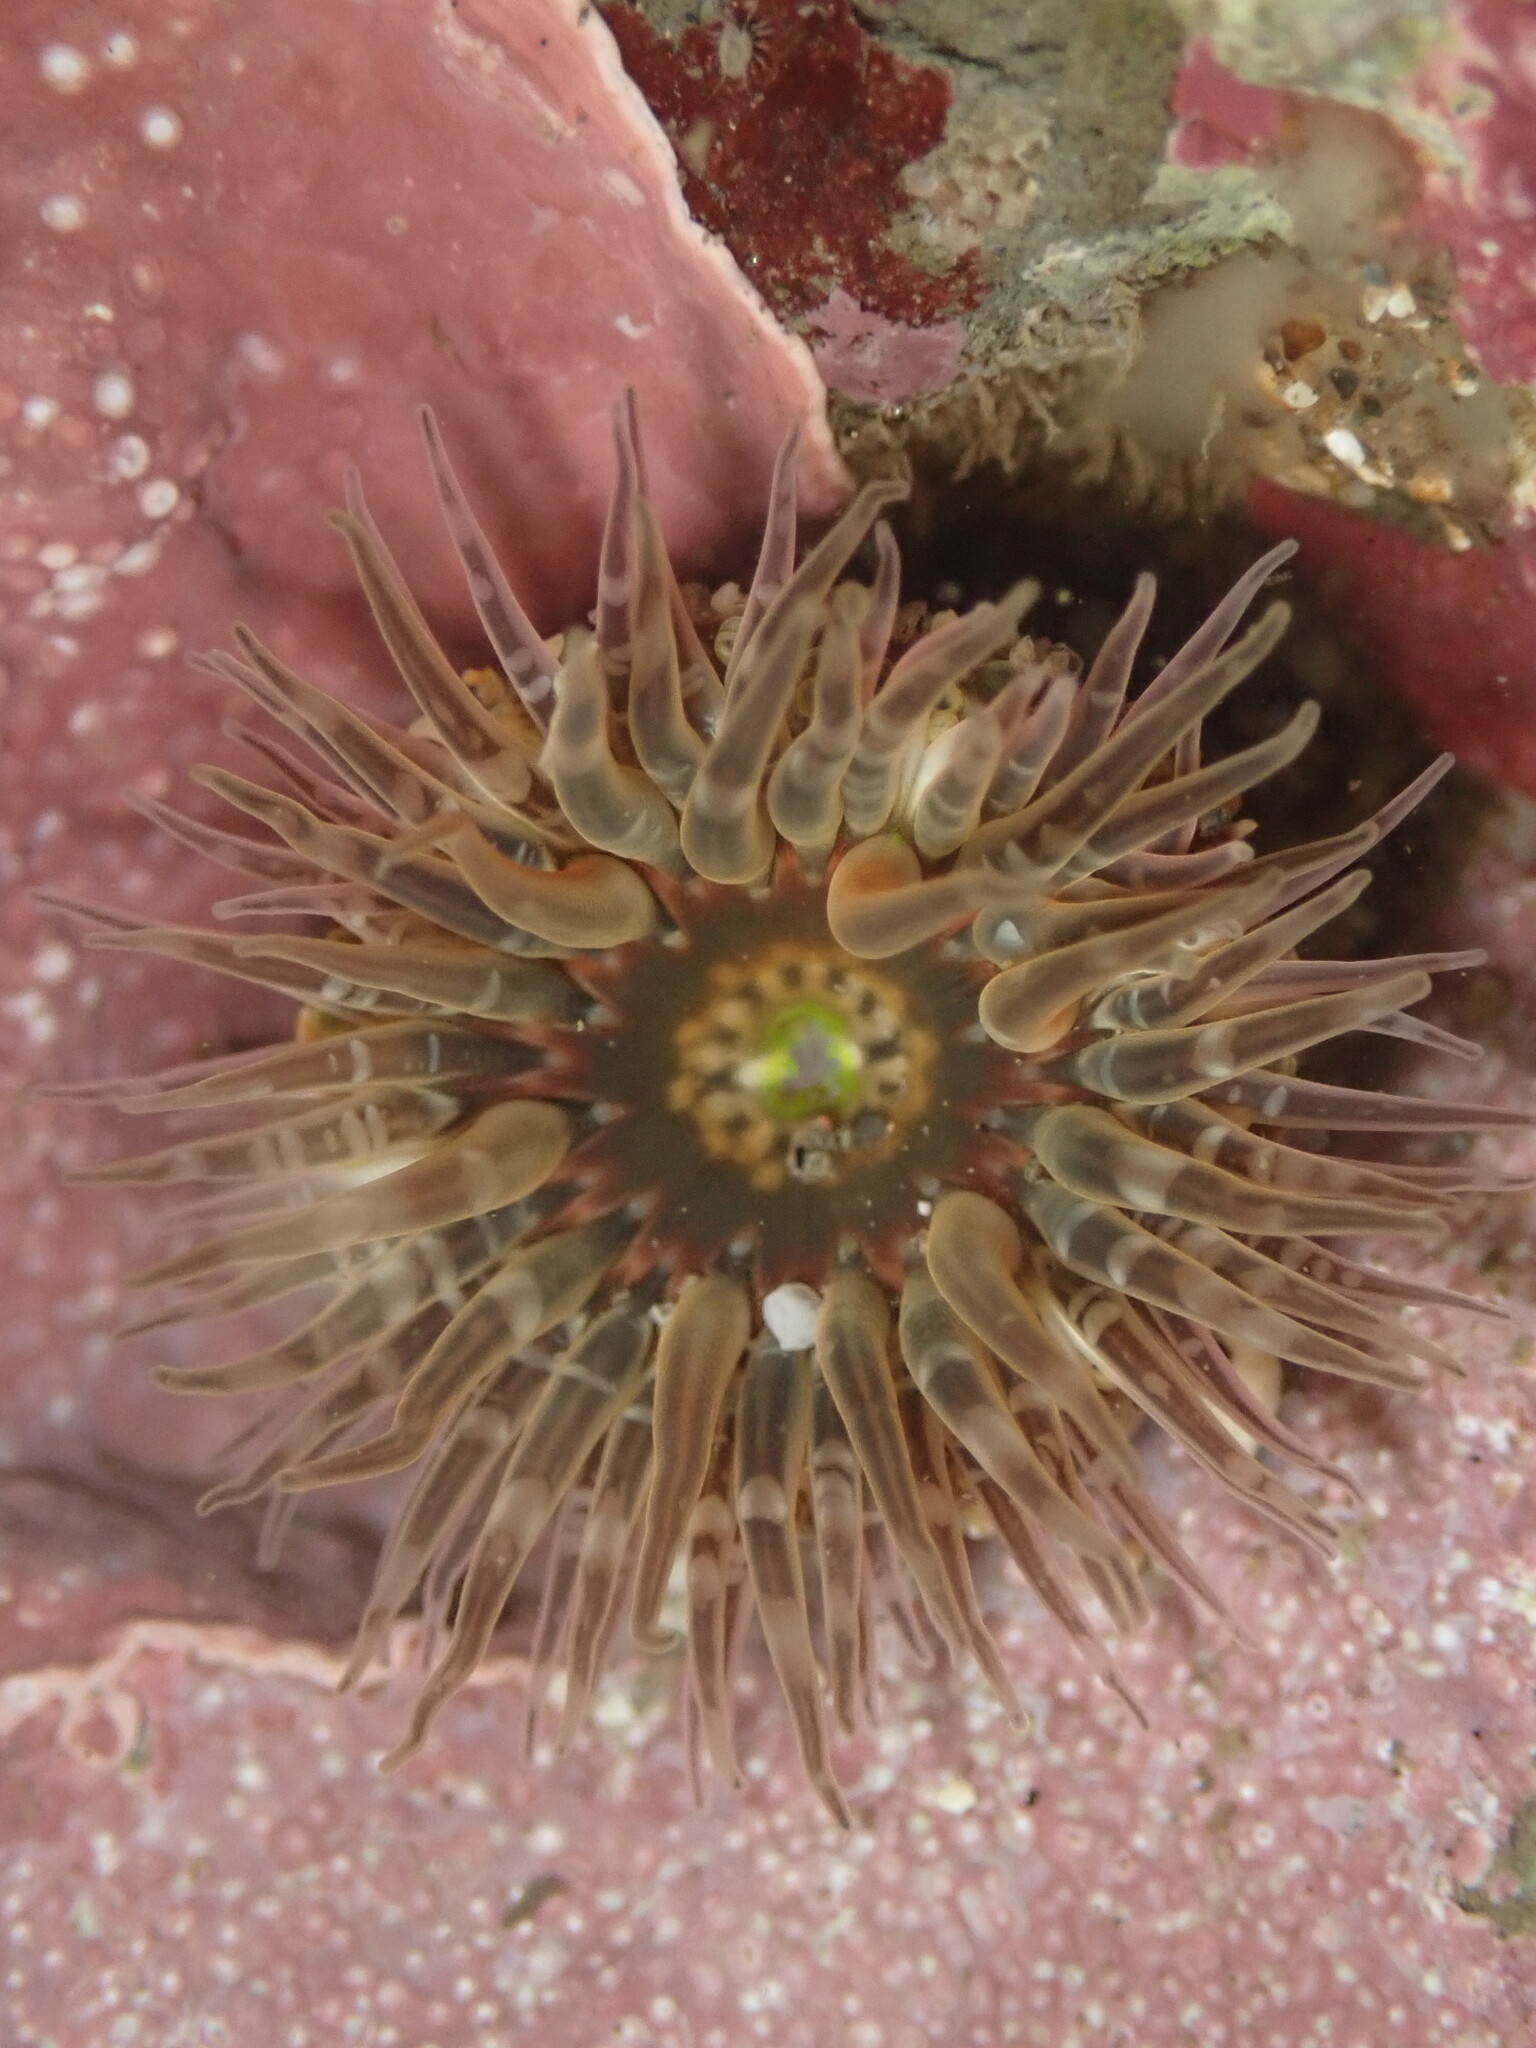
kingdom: Animalia
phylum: Cnidaria
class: Anthozoa
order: Actiniaria
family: Actiniidae
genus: Anthopleura
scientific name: Anthopleura artemisia
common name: Buried sea anemone
